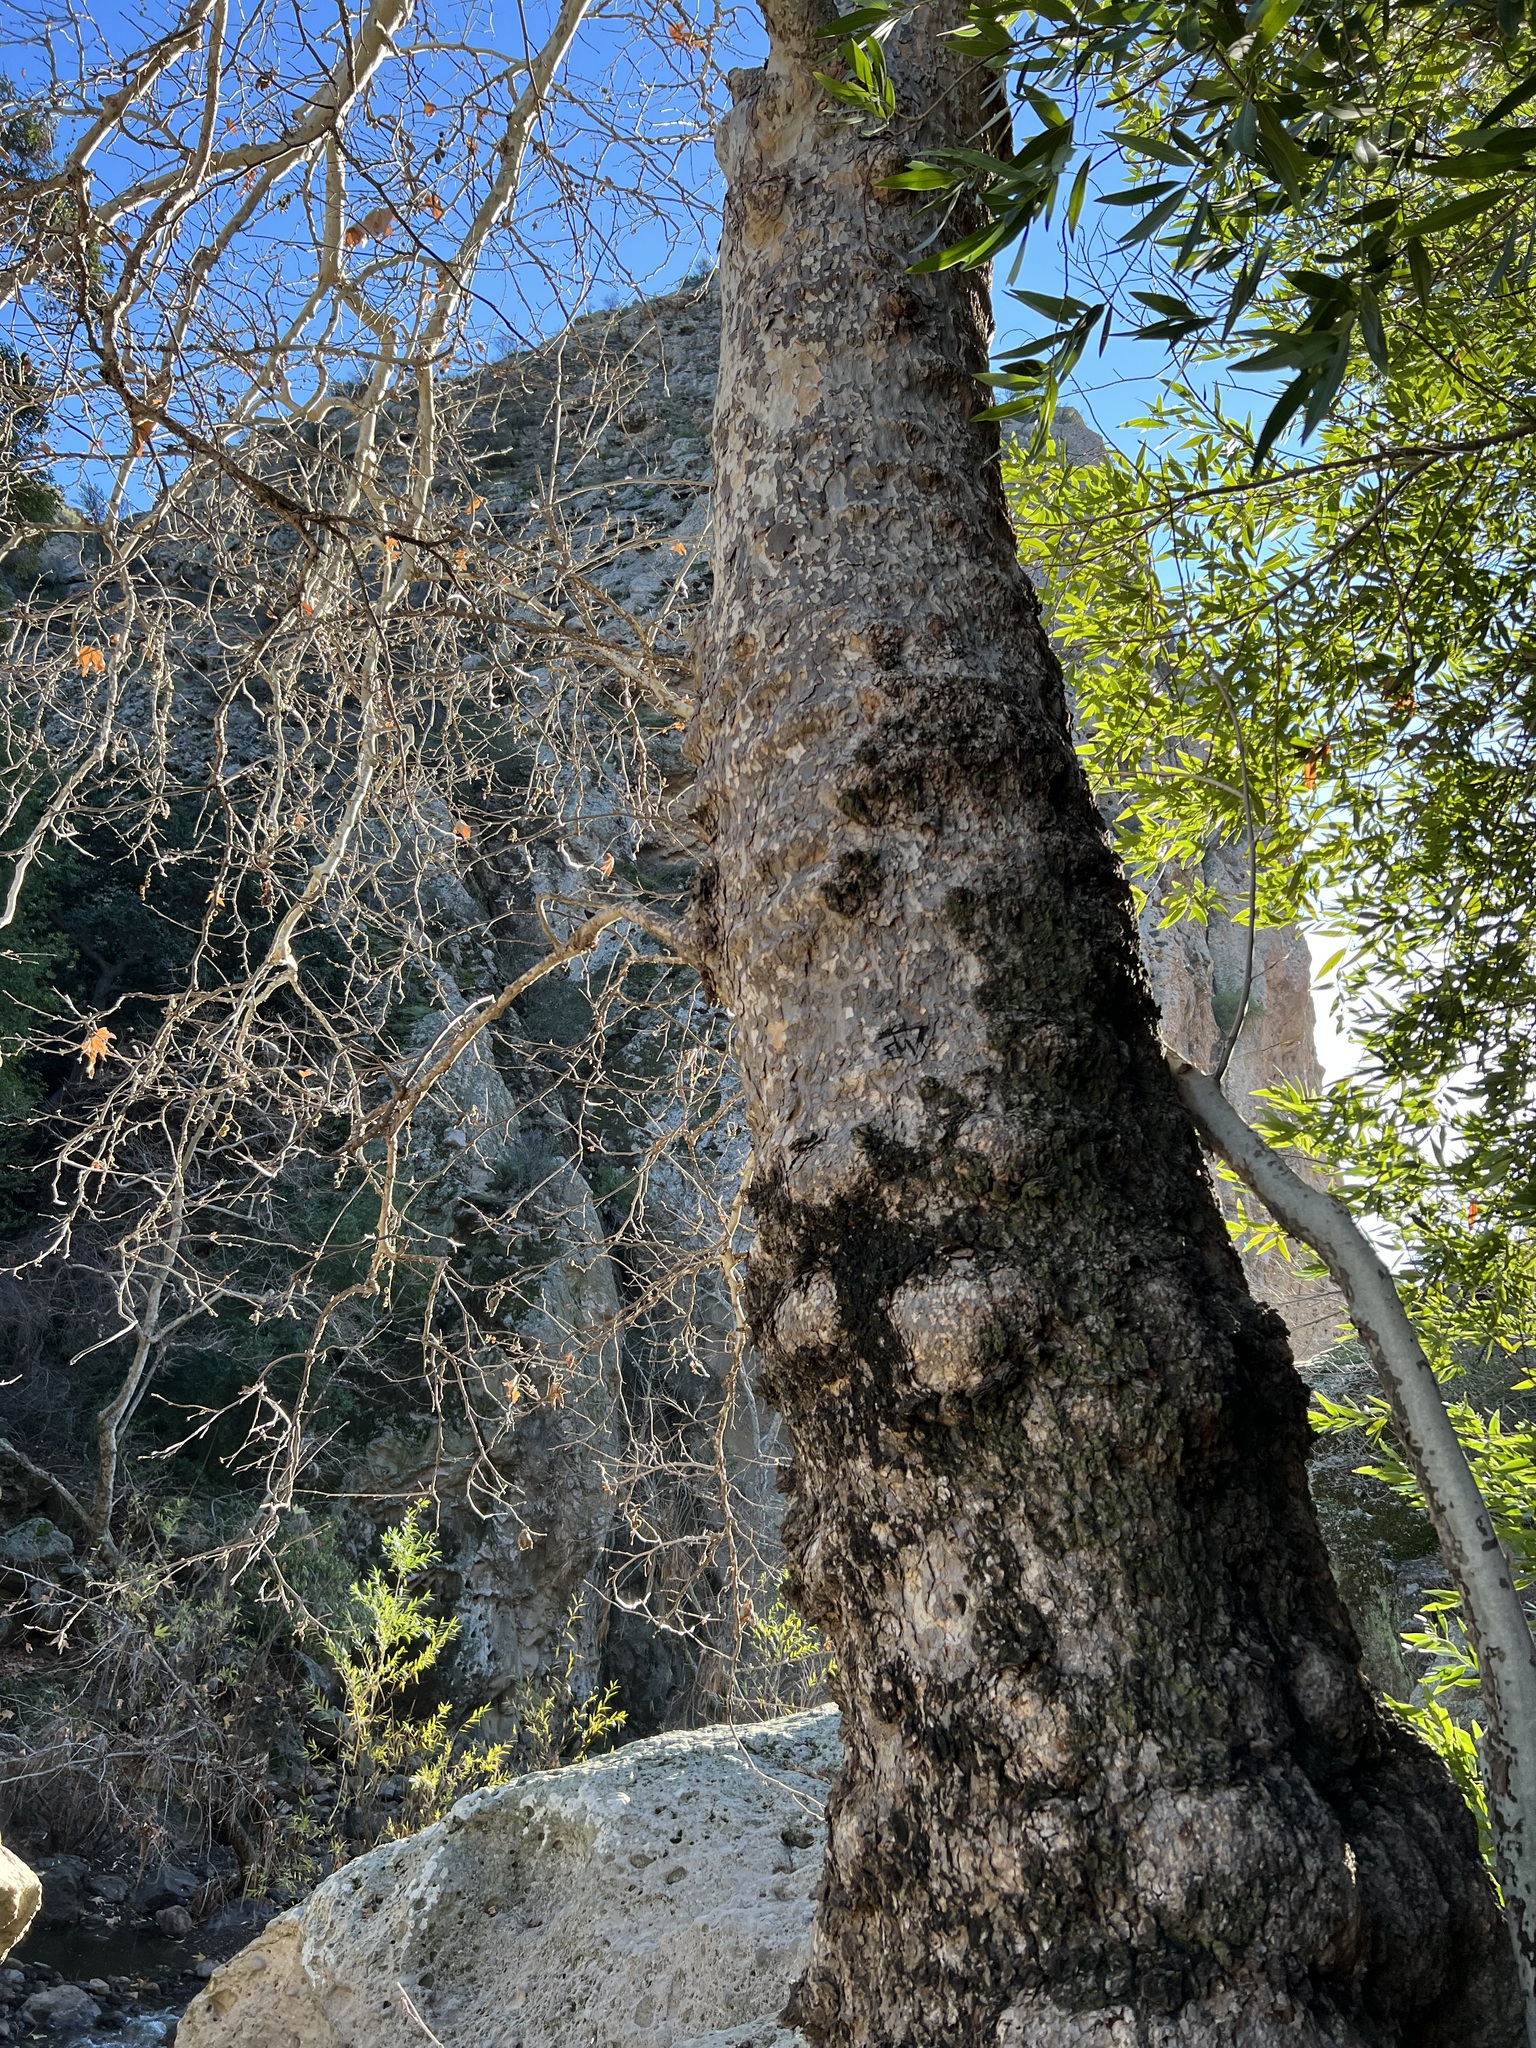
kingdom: Plantae
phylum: Tracheophyta
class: Magnoliopsida
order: Proteales
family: Platanaceae
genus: Platanus
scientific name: Platanus racemosa
